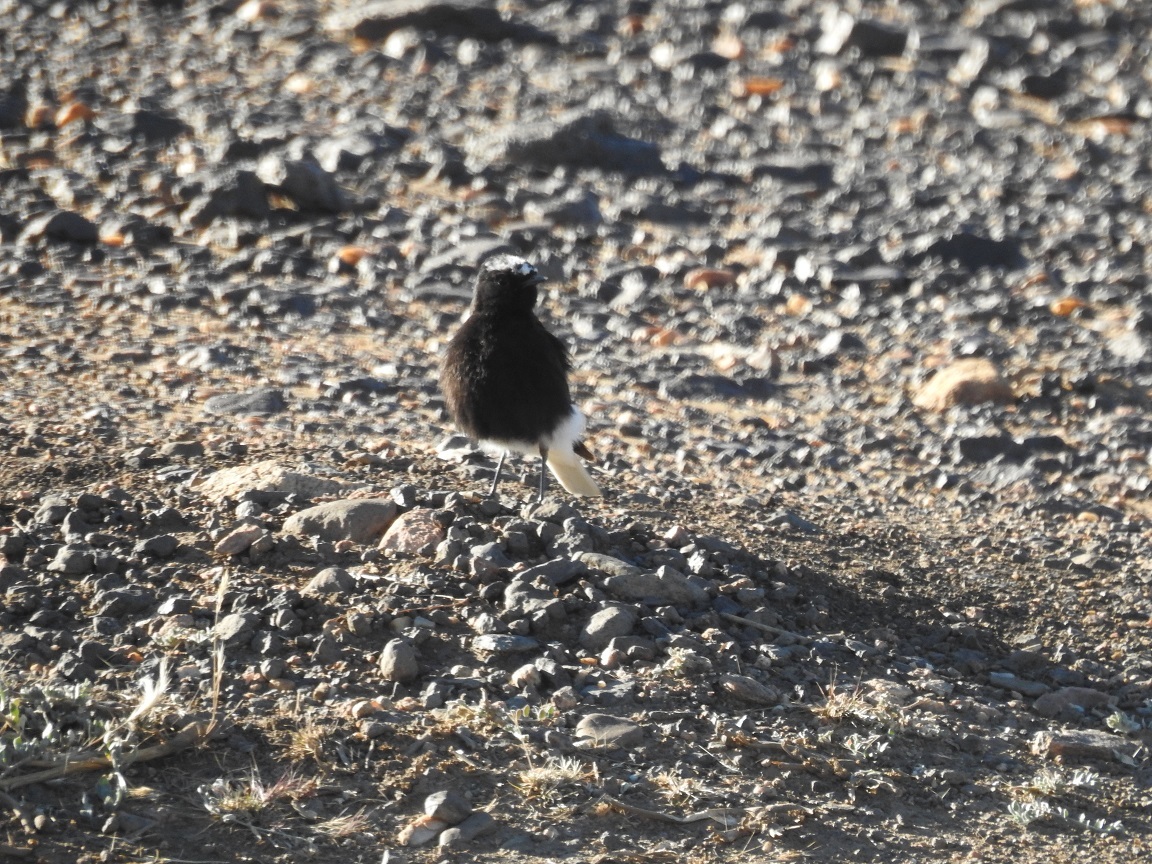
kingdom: Animalia
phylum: Chordata
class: Aves
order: Passeriformes
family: Muscicapidae
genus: Oenanthe
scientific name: Oenanthe leucopyga
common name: White-crowned wheatear
